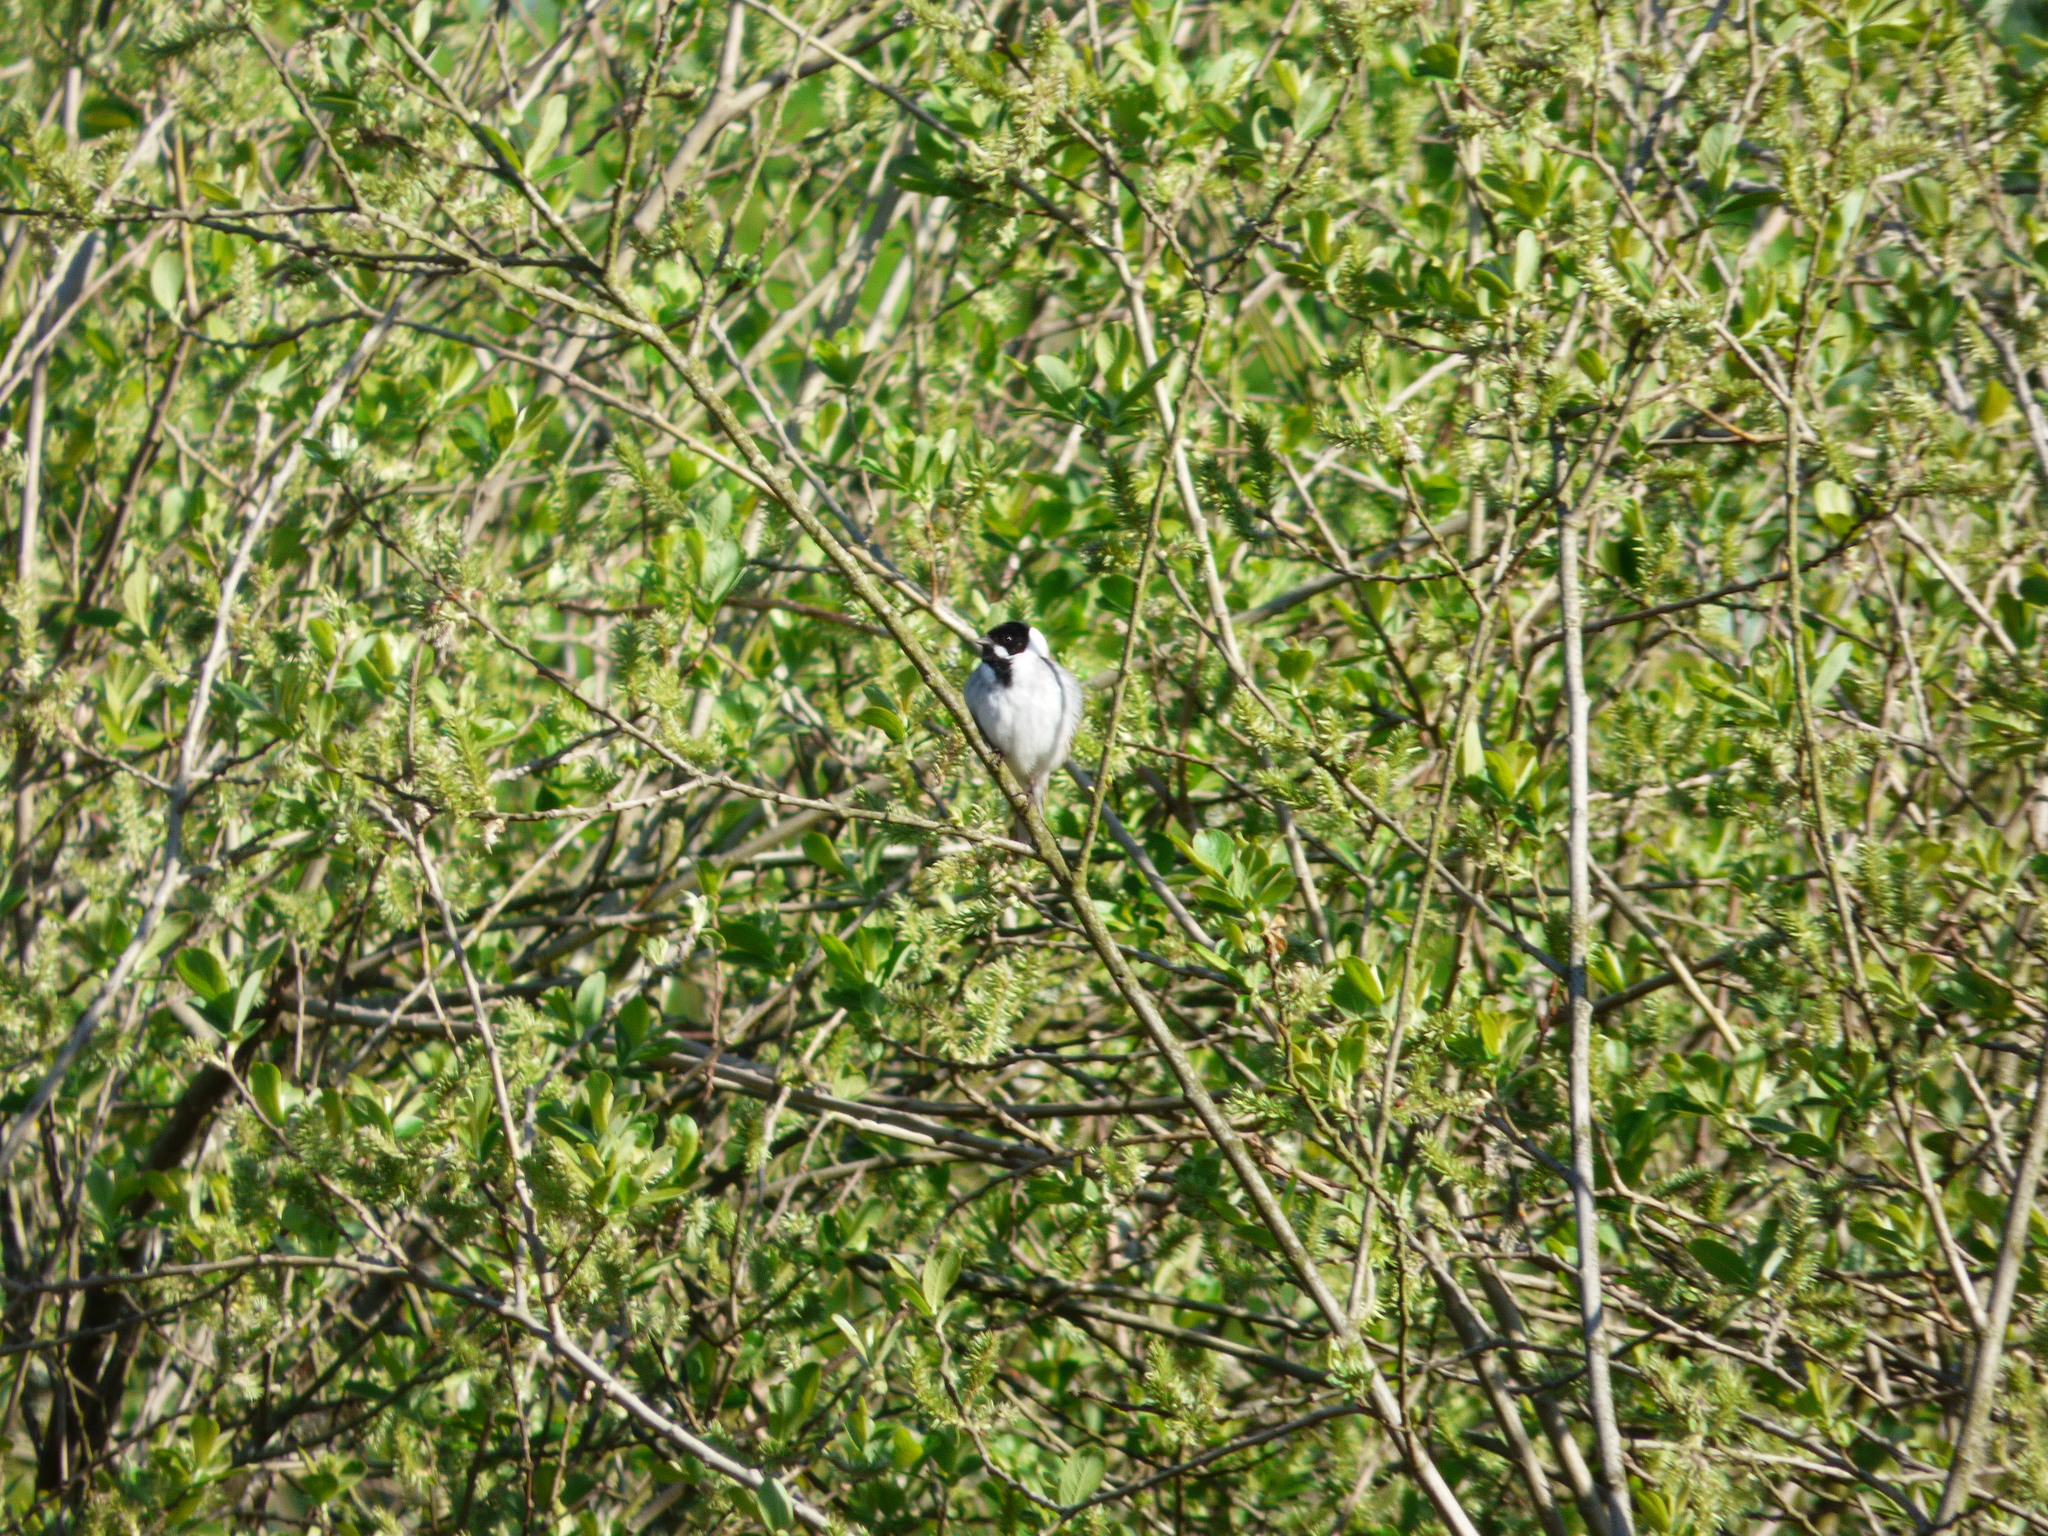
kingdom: Animalia
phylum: Chordata
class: Aves
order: Passeriformes
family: Emberizidae
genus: Emberiza
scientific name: Emberiza schoeniclus
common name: Reed bunting
